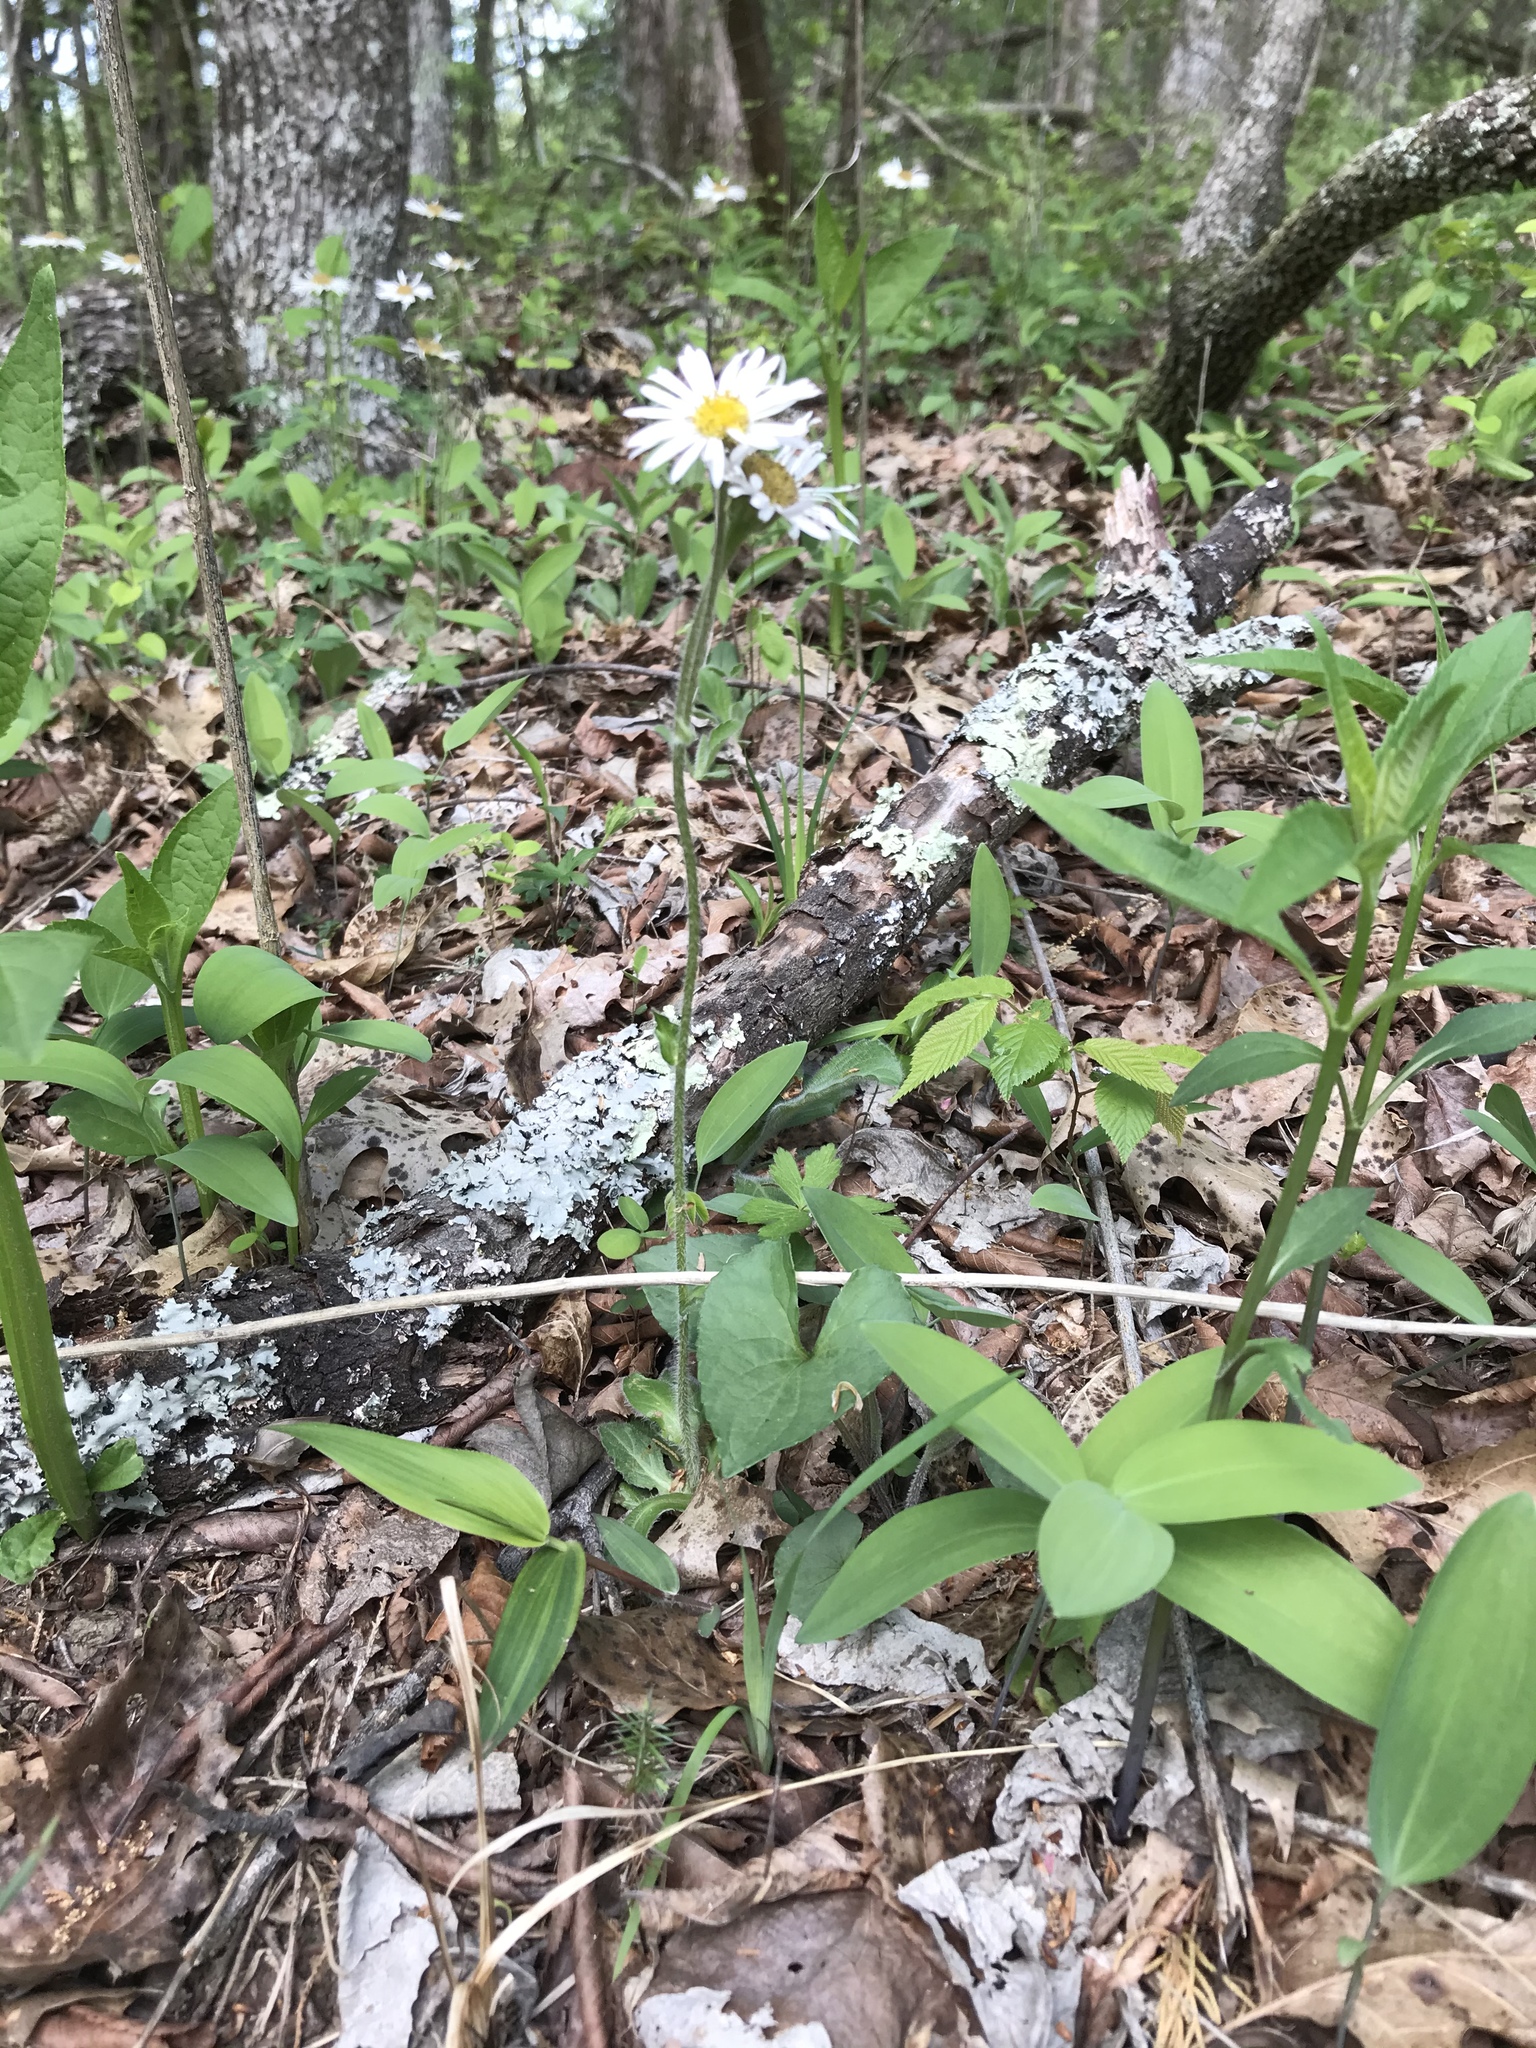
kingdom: Plantae
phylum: Tracheophyta
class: Magnoliopsida
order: Asterales
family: Asteraceae
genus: Erigeron
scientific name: Erigeron pulchellus
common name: Hairy fleabane
